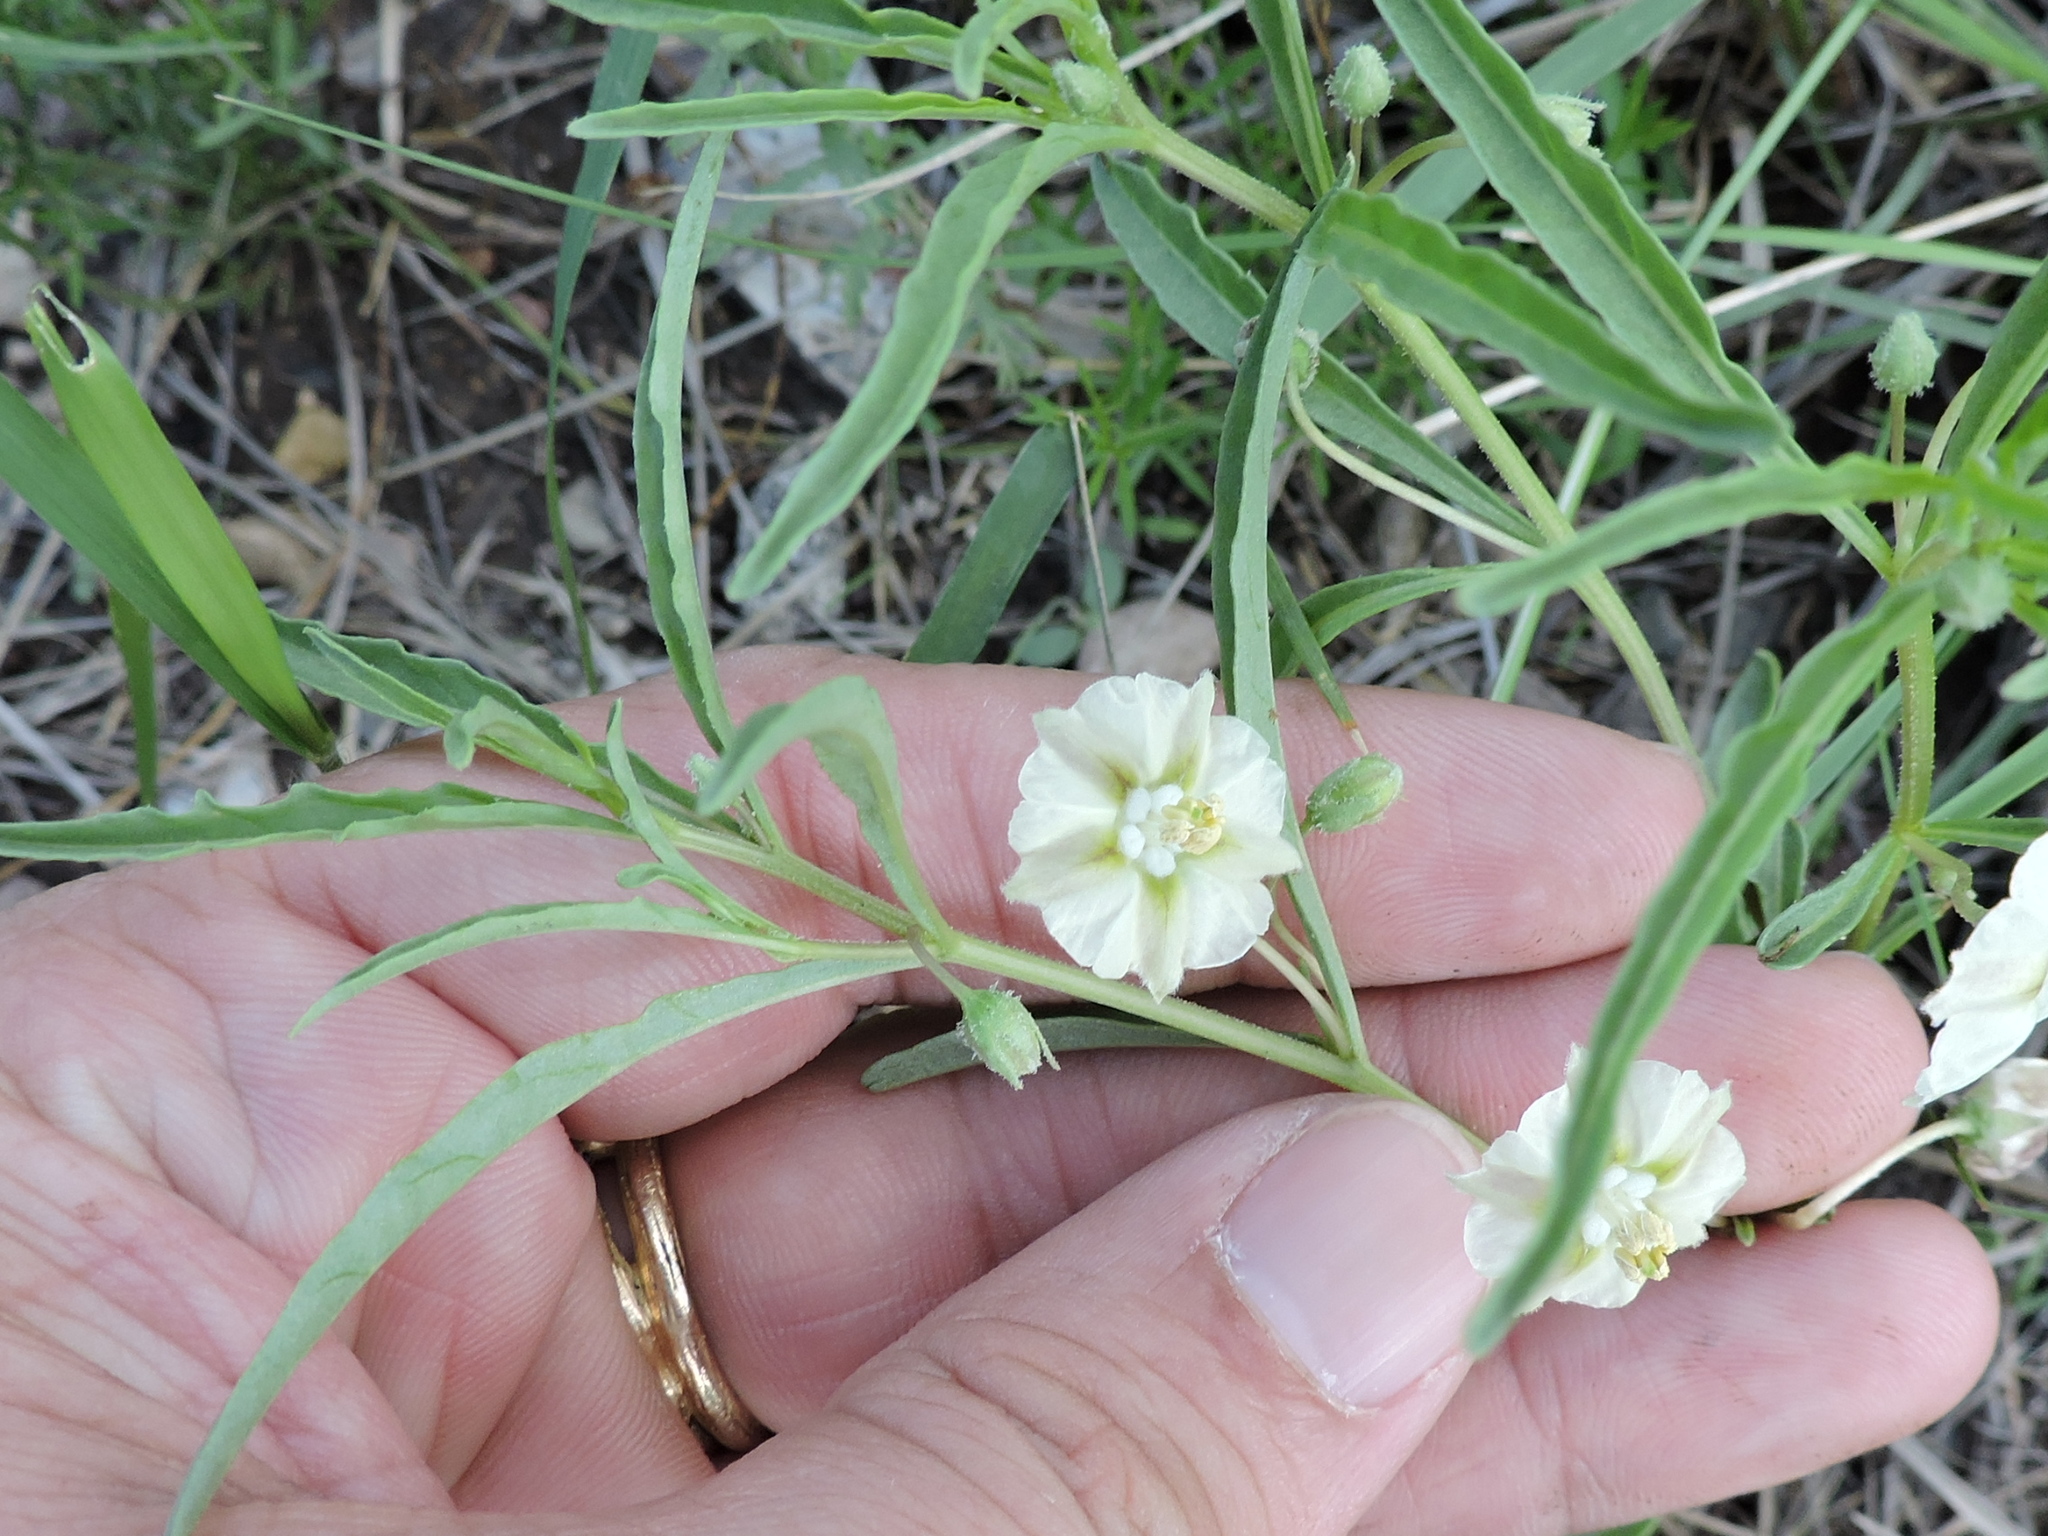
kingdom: Plantae
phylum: Tracheophyta
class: Magnoliopsida
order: Solanales
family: Solanaceae
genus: Chamaesaracha
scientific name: Chamaesaracha coronopus
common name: Smooth chamaesaracha
